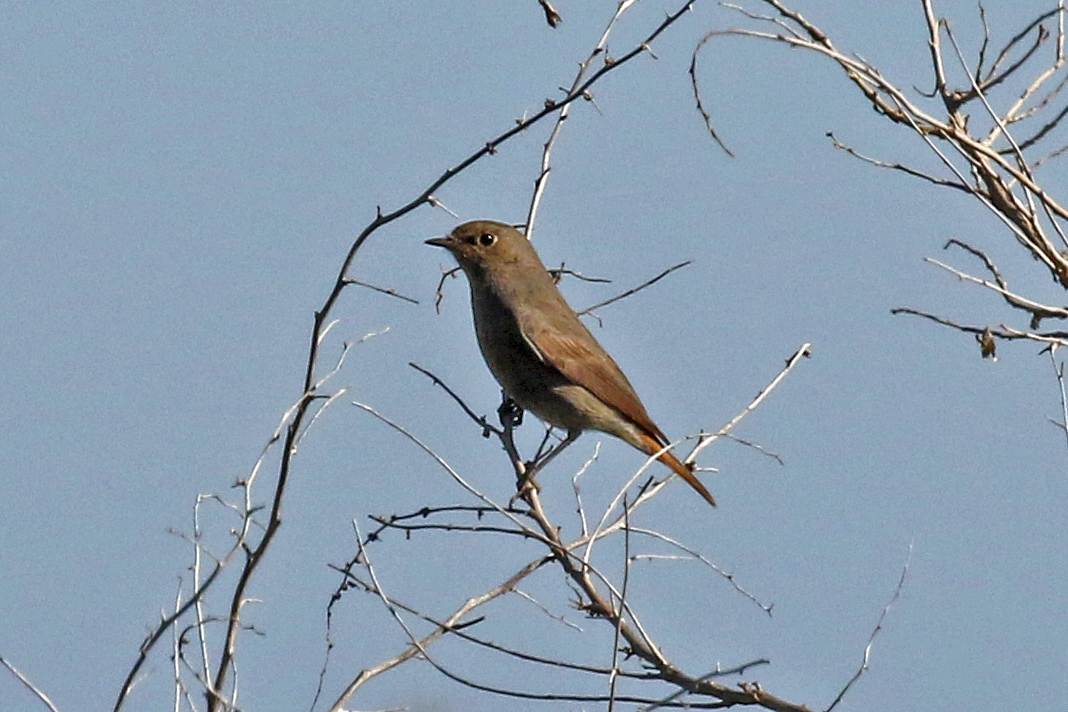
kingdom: Animalia
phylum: Chordata
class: Aves
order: Passeriformes
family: Muscicapidae
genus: Phoenicurus
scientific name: Phoenicurus ochruros
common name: Black redstart
